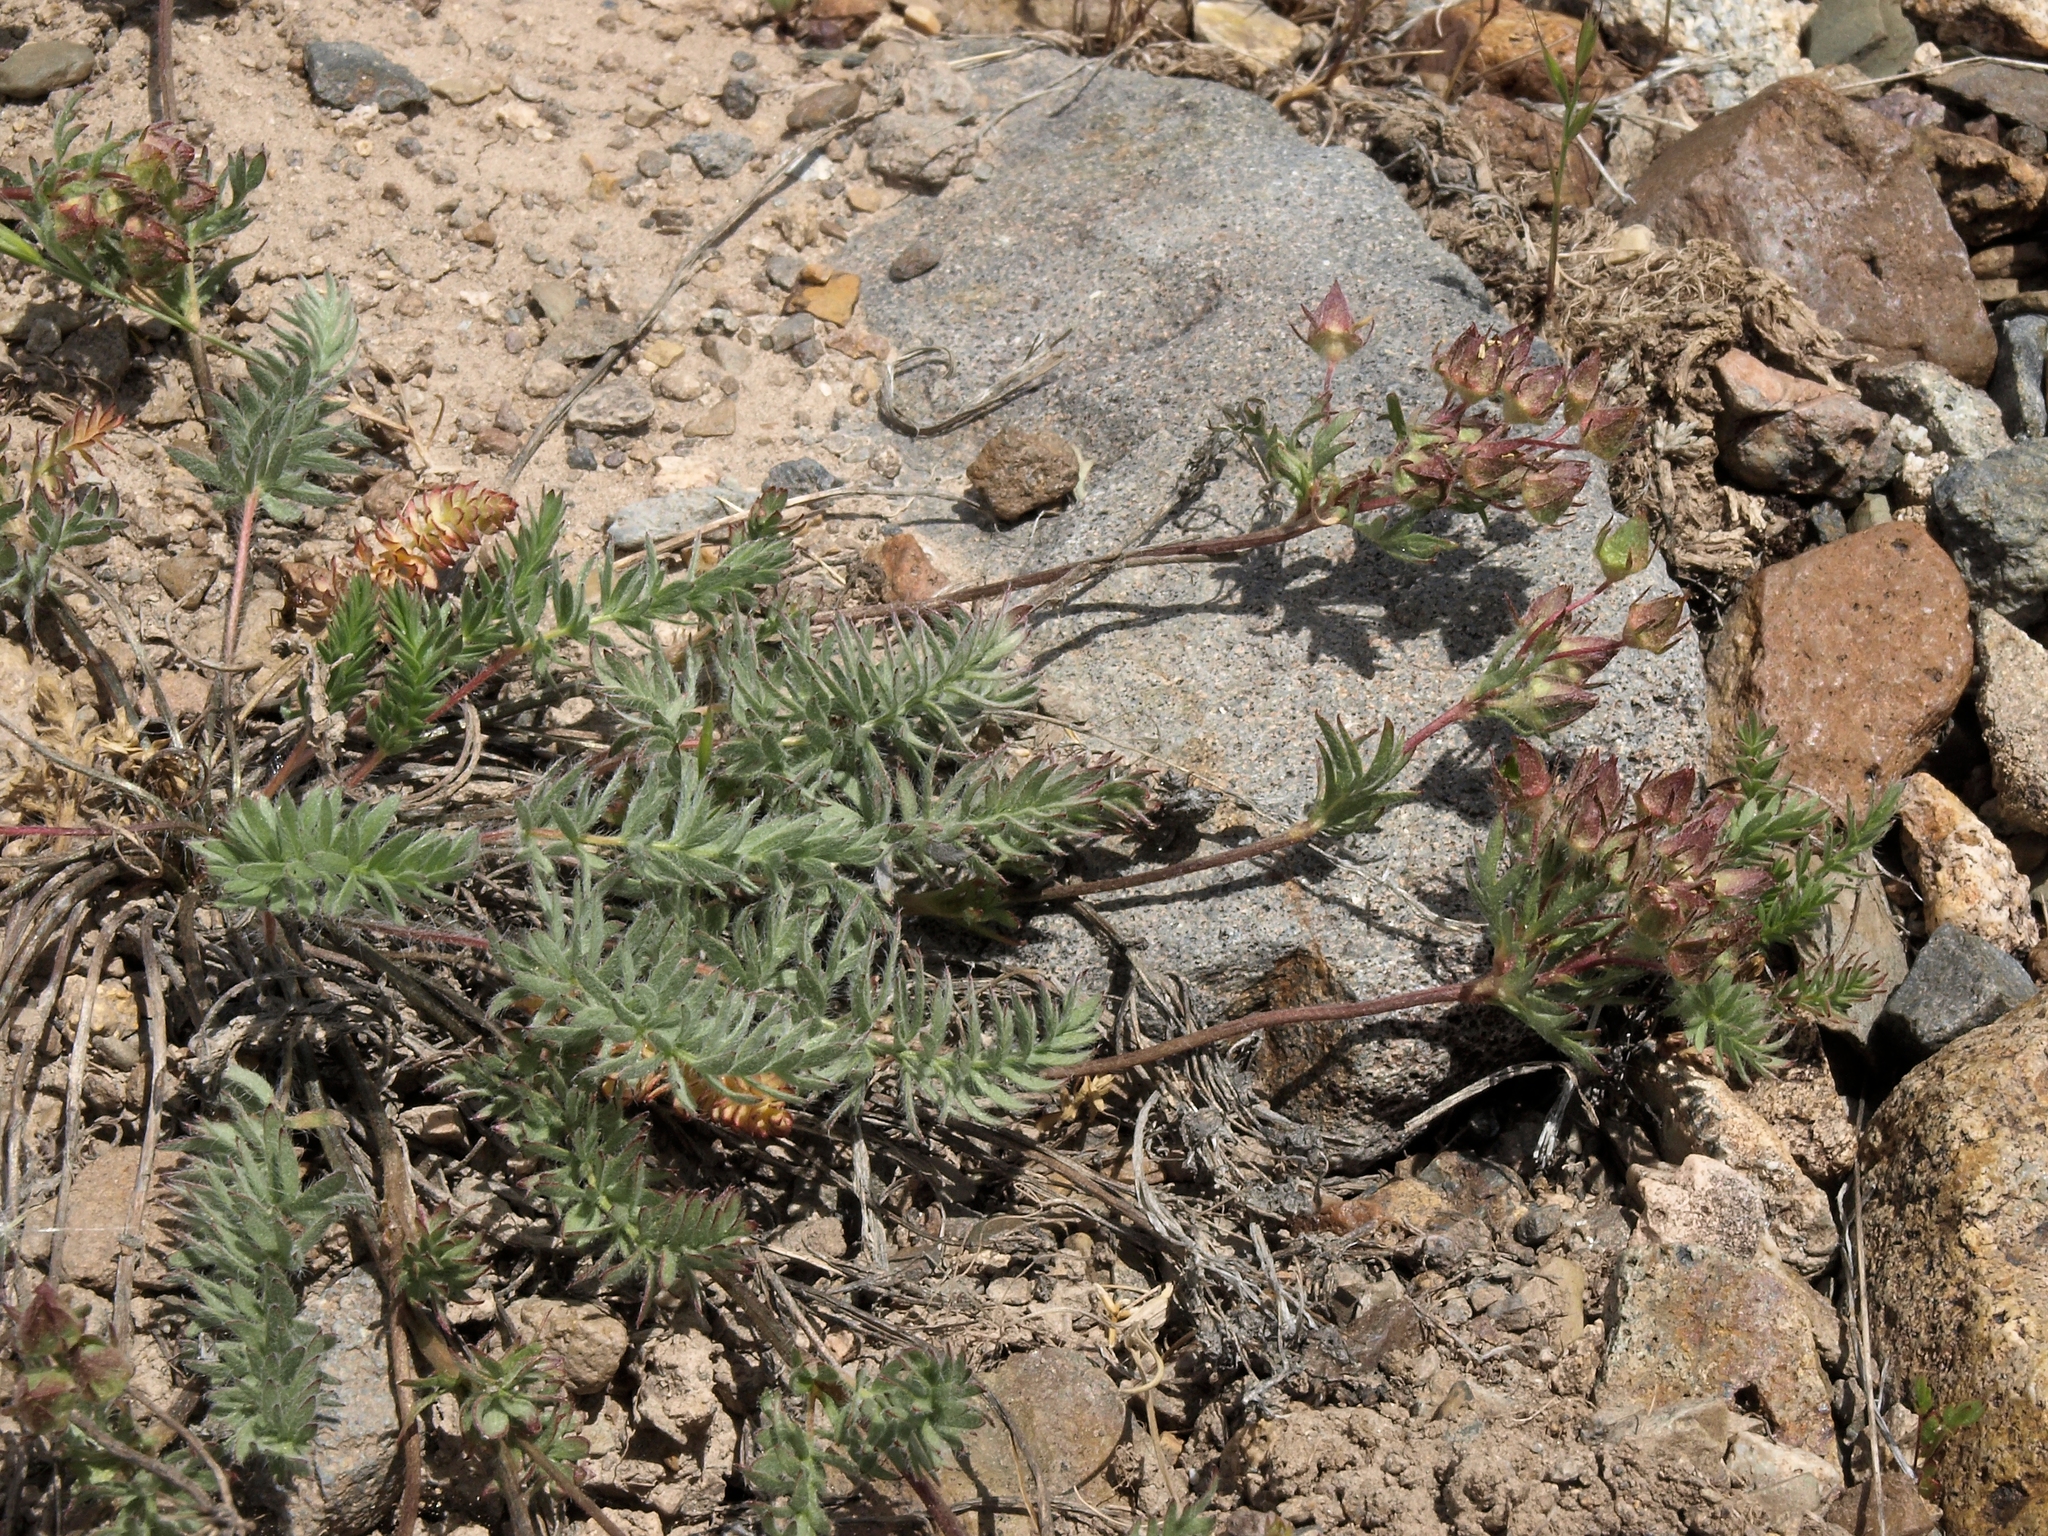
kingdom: Plantae
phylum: Tracheophyta
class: Magnoliopsida
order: Rosales
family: Rosaceae
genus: Potentilla
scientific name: Potentilla webberi
